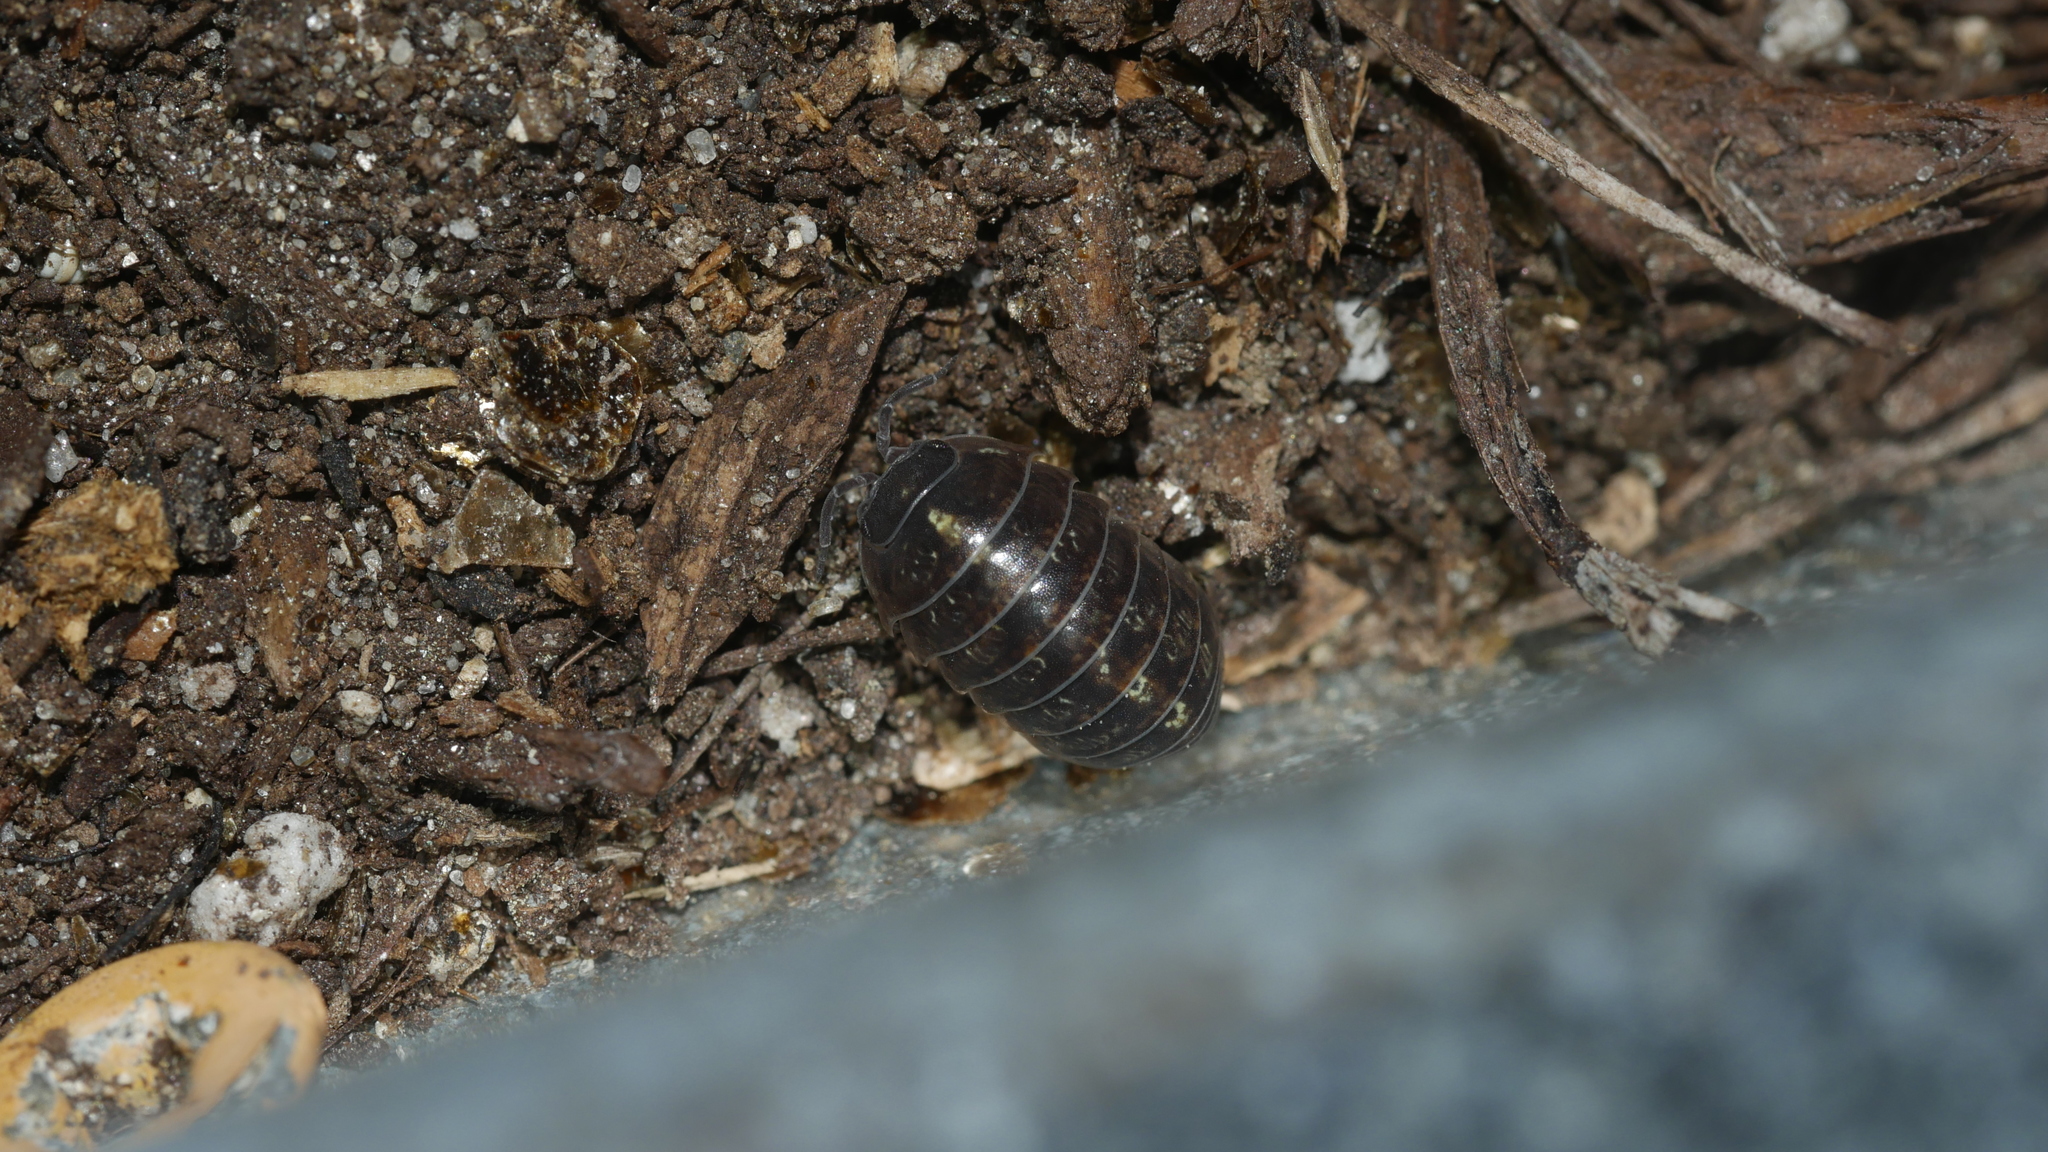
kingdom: Animalia
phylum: Arthropoda
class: Malacostraca
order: Isopoda
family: Armadillidiidae
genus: Armadillidium
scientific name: Armadillidium vulgare
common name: Common pill woodlouse
